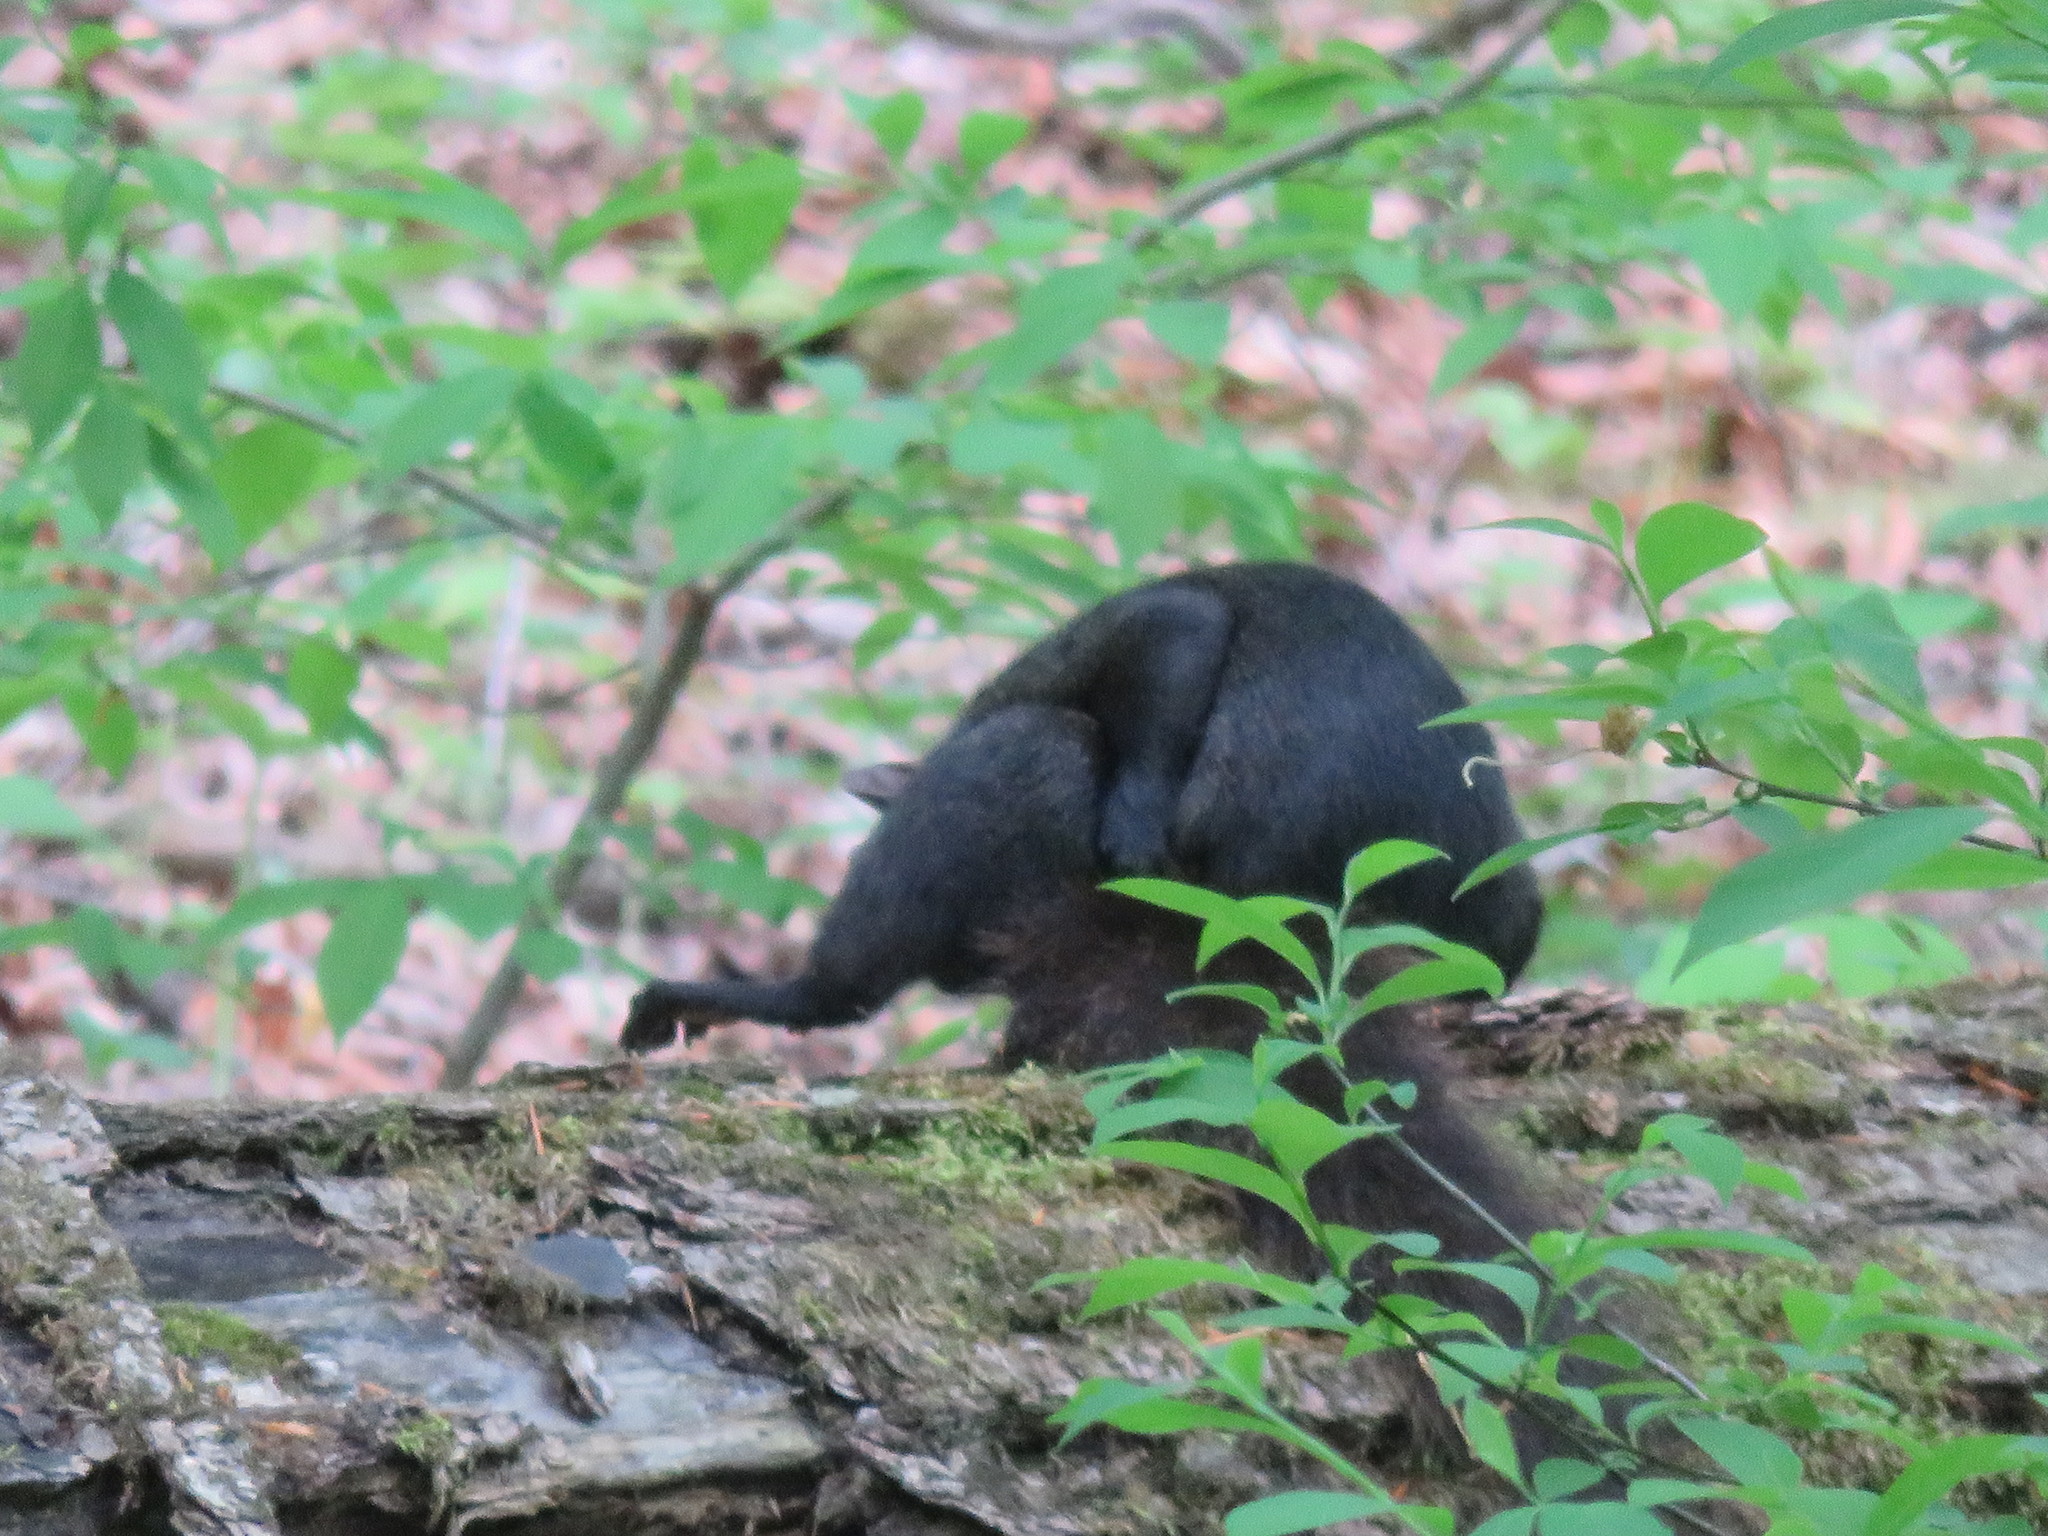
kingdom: Animalia
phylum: Chordata
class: Mammalia
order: Rodentia
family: Sciuridae
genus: Sciurus
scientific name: Sciurus carolinensis
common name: Eastern gray squirrel
